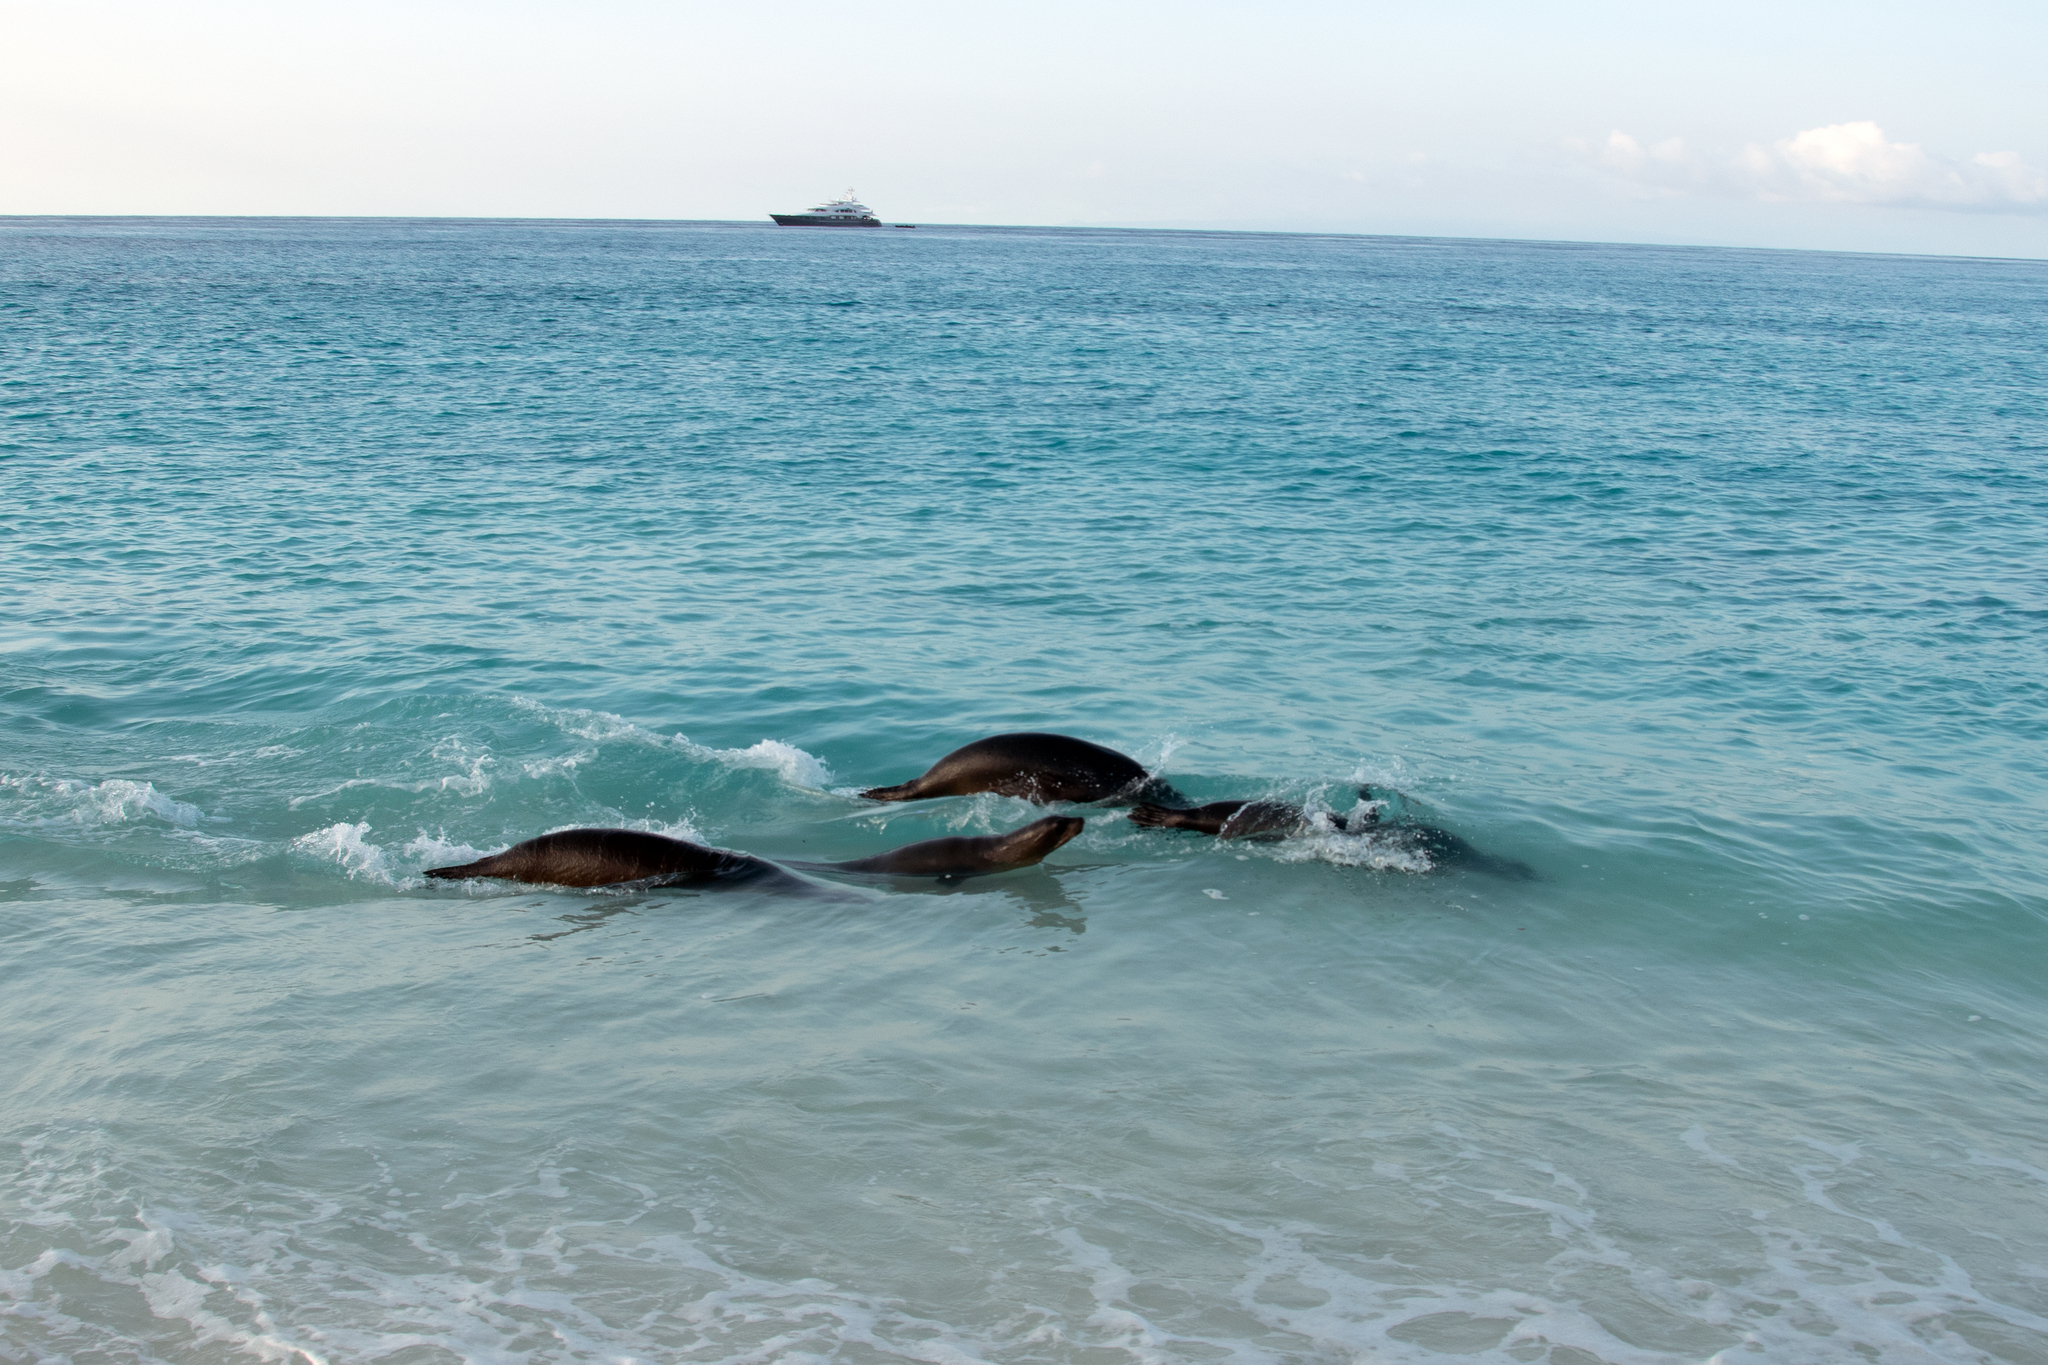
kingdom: Animalia
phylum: Chordata
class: Mammalia
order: Carnivora
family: Otariidae
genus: Zalophus
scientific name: Zalophus wollebaeki
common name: Galapagos sea lion
